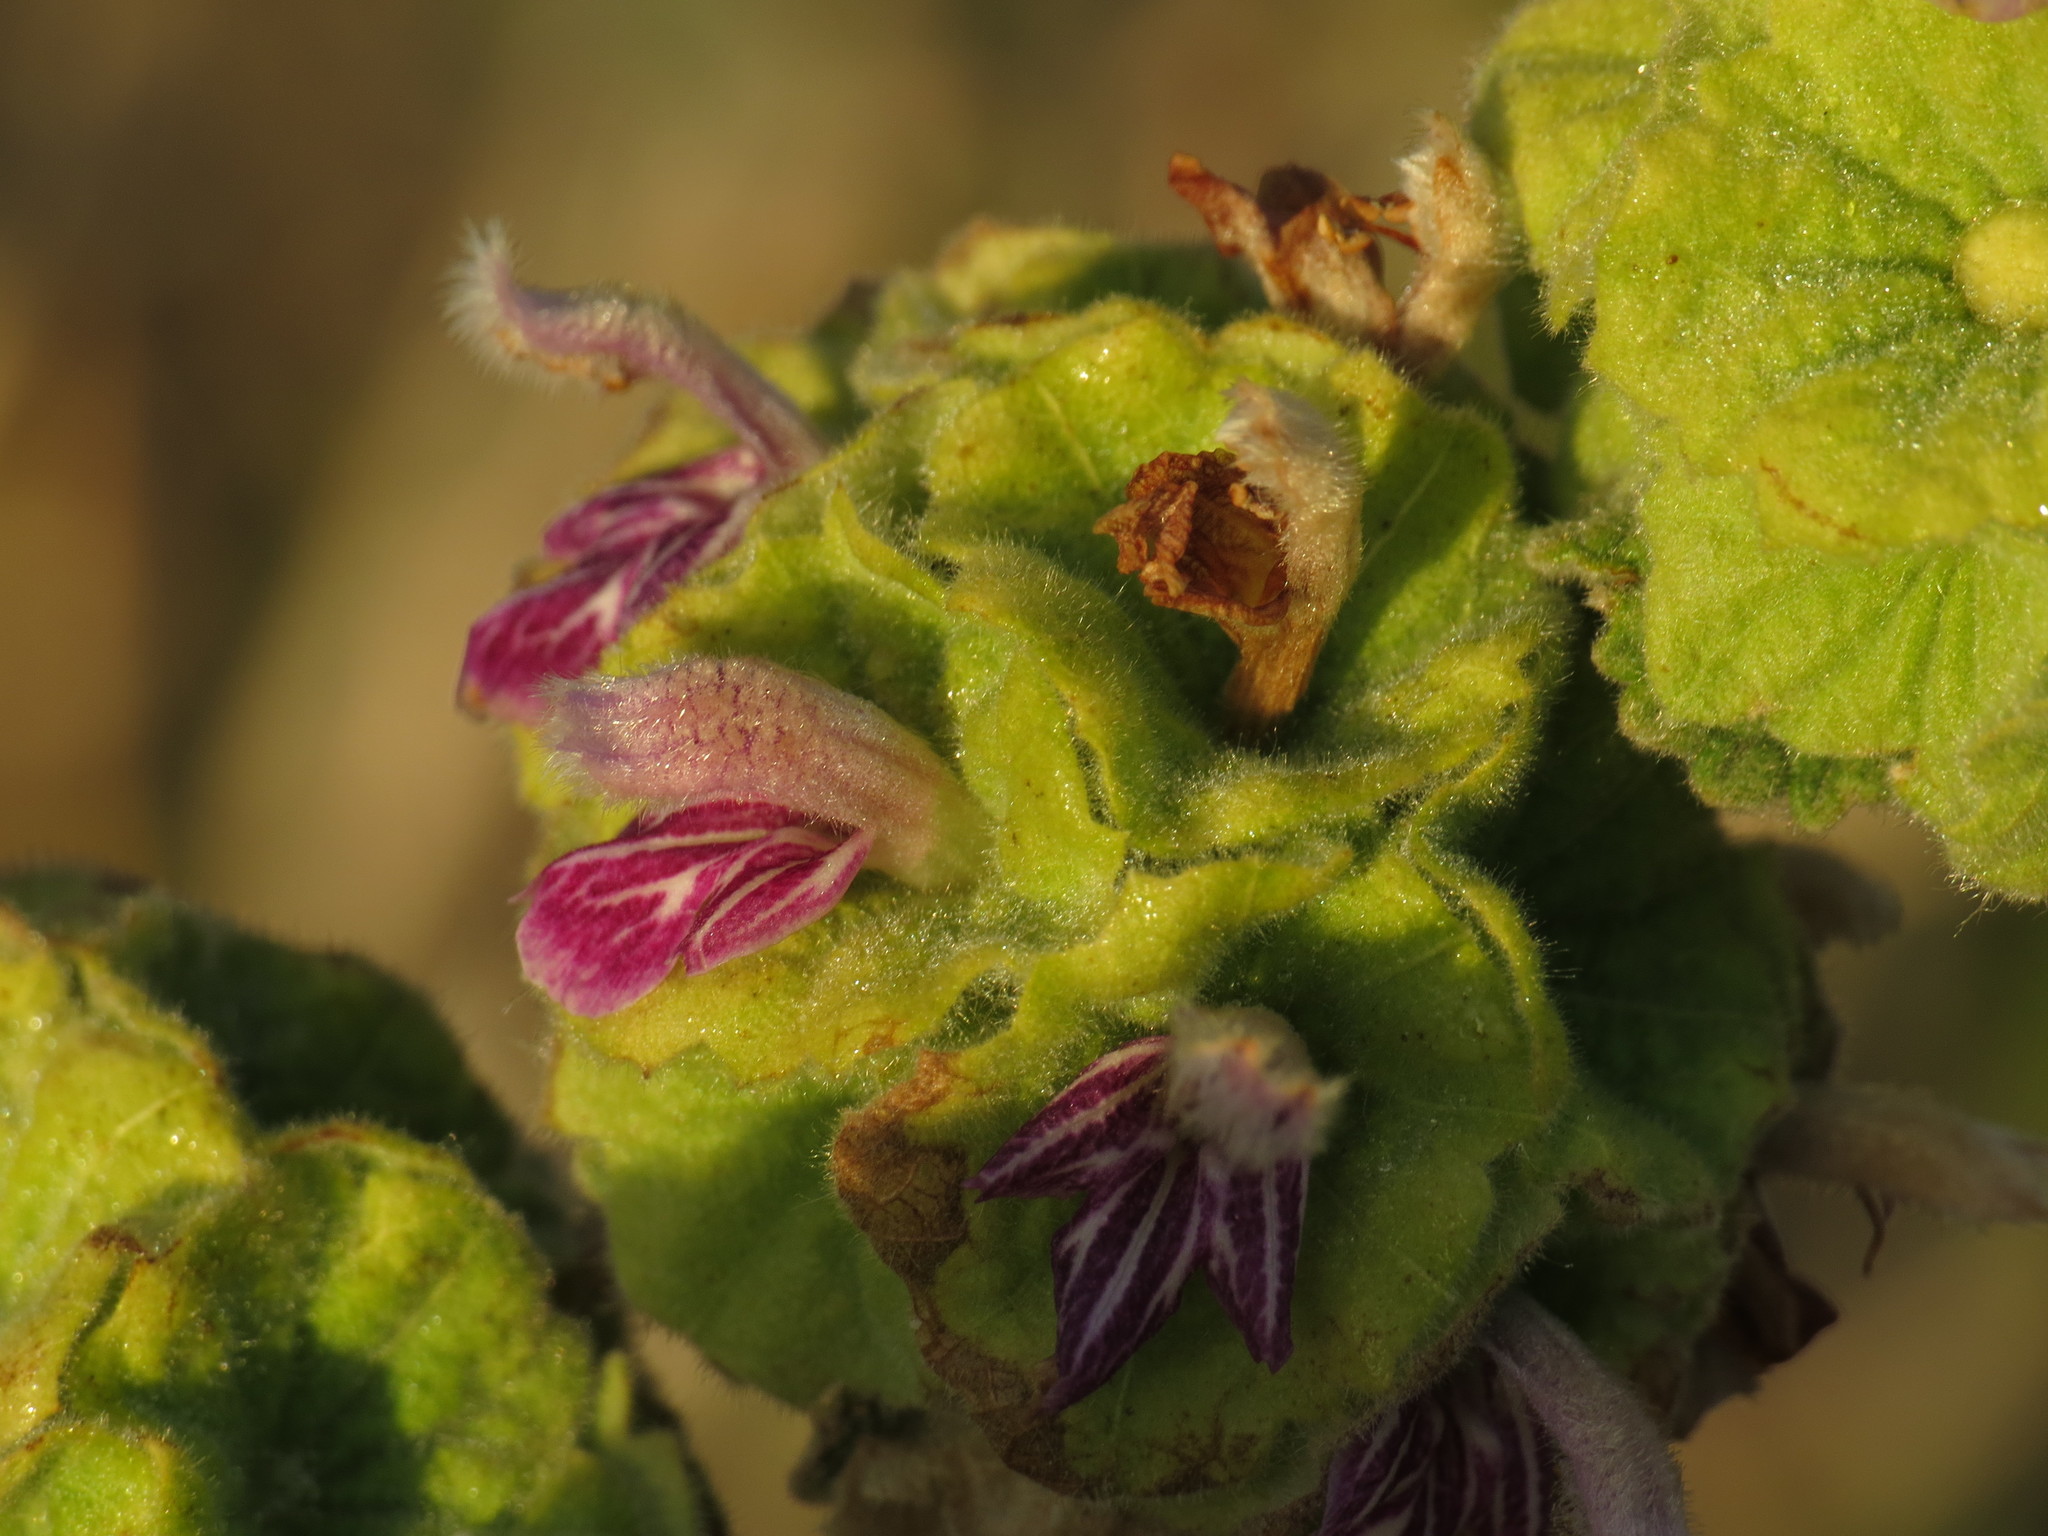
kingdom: Plantae
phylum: Tracheophyta
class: Magnoliopsida
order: Lamiales
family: Lamiaceae
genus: Pseudodictamnus
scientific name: Pseudodictamnus hirsutus
